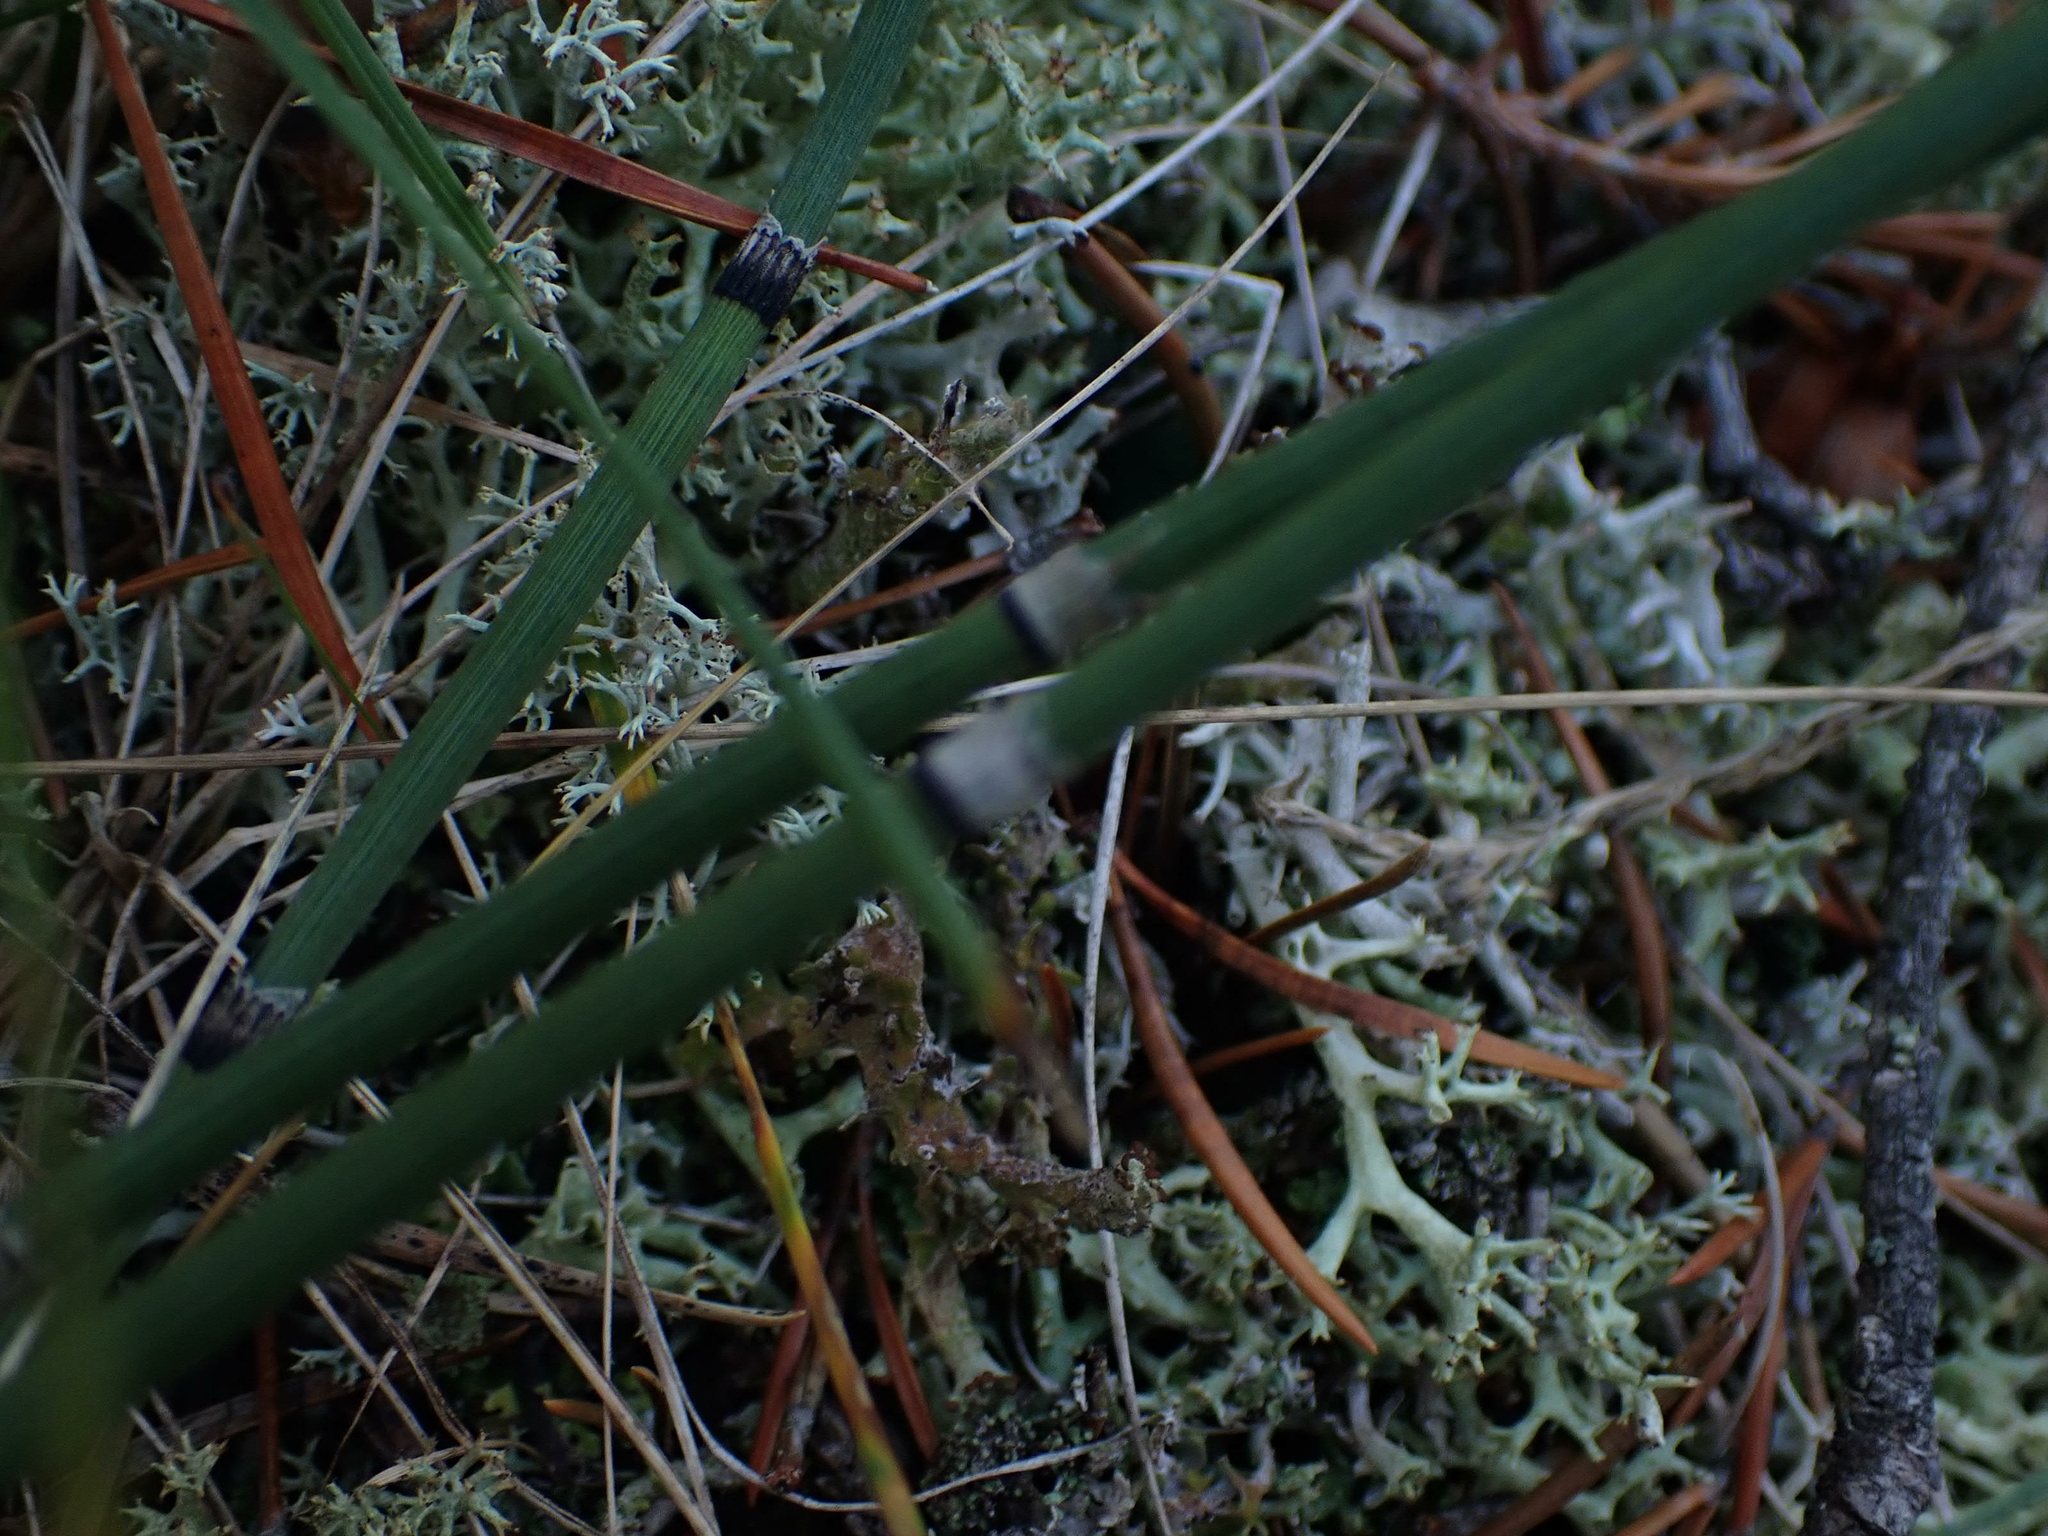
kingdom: Plantae
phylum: Tracheophyta
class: Polypodiopsida
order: Equisetales
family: Equisetaceae
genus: Equisetum
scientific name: Equisetum praealtum
